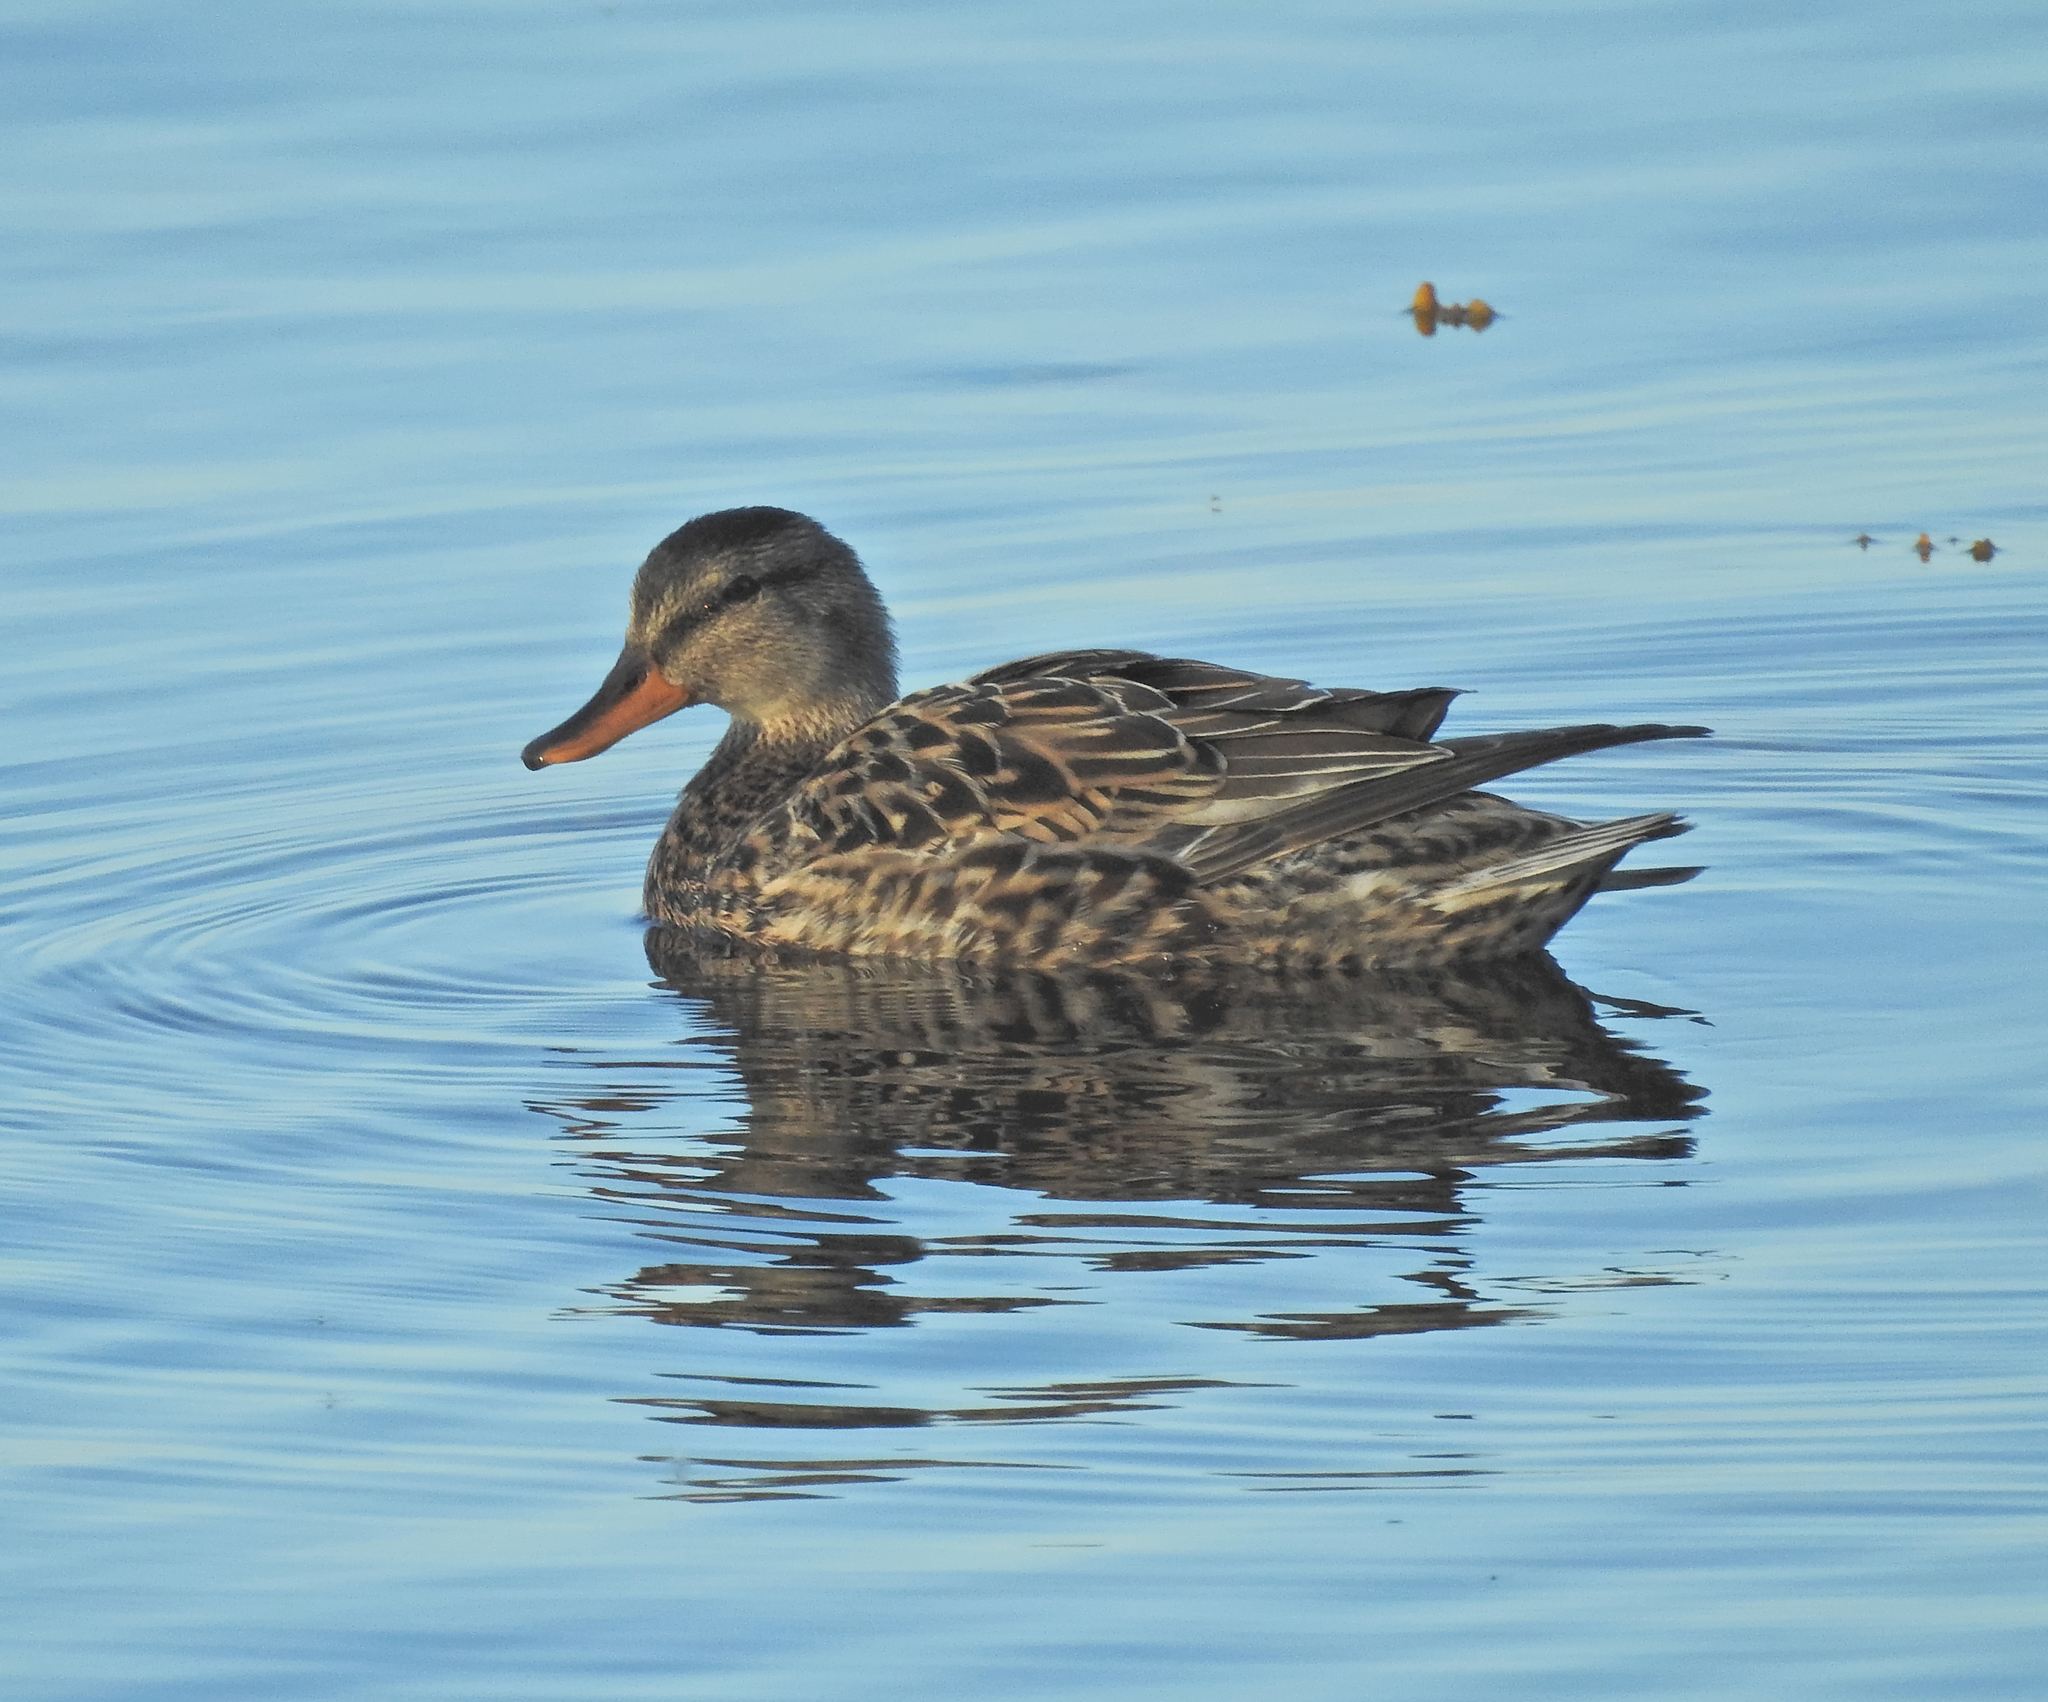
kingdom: Animalia
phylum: Chordata
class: Aves
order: Anseriformes
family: Anatidae
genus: Mareca
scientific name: Mareca strepera
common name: Gadwall
